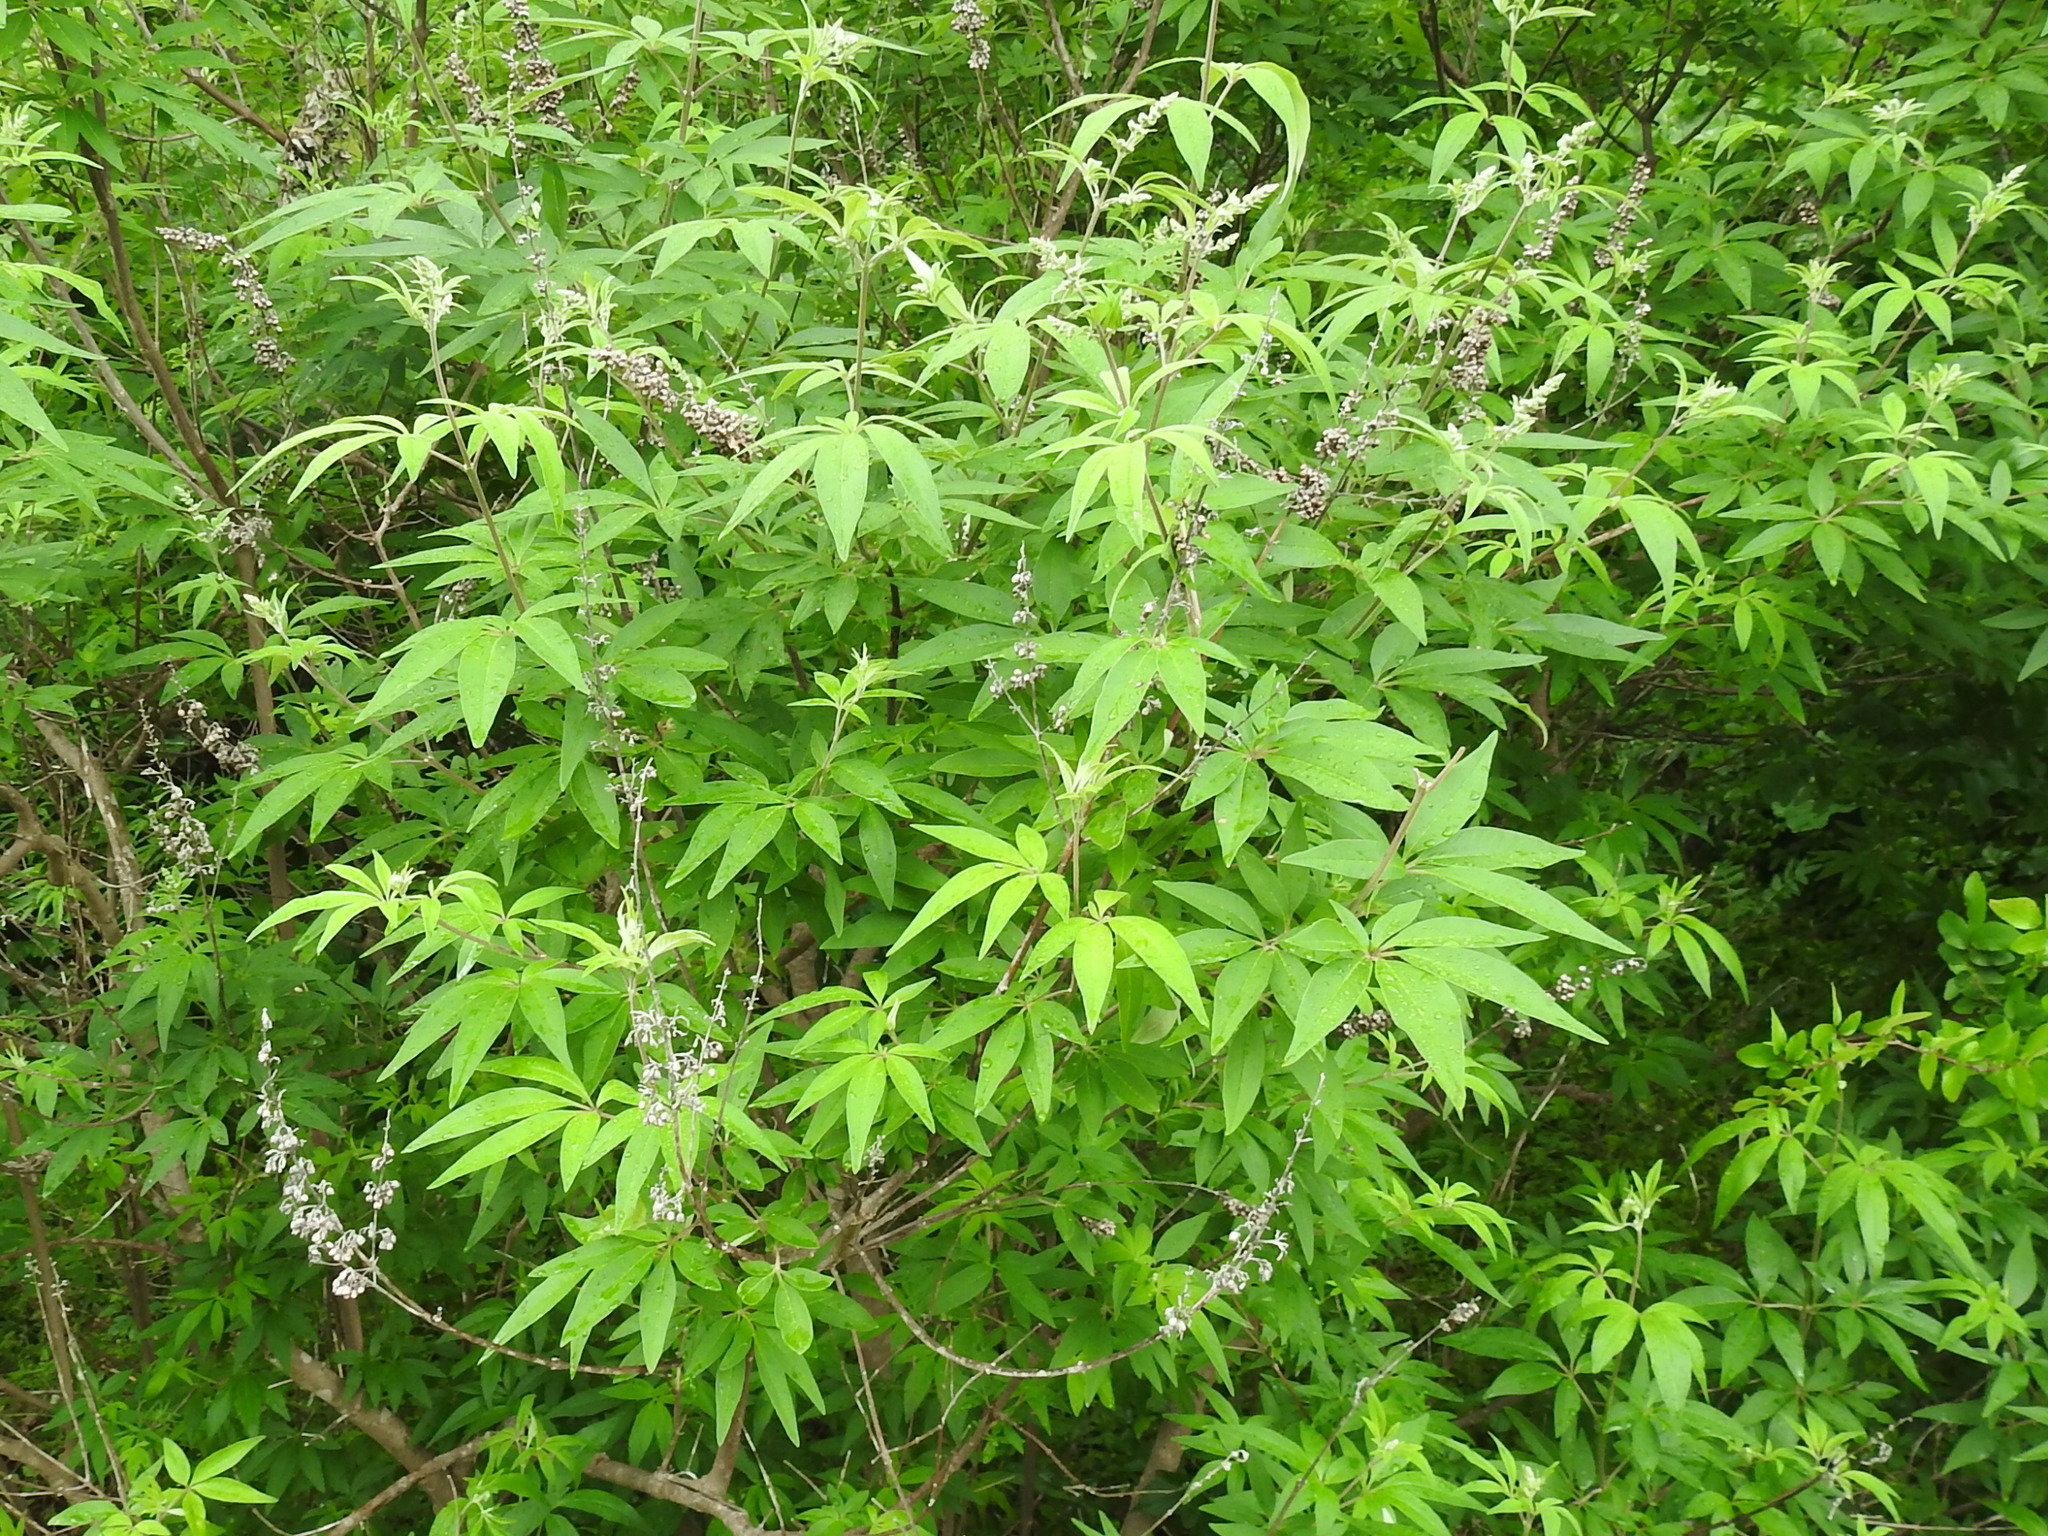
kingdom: Plantae
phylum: Tracheophyta
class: Magnoliopsida
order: Lamiales
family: Lamiaceae
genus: Vitex
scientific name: Vitex agnus-castus
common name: Chasteberry
